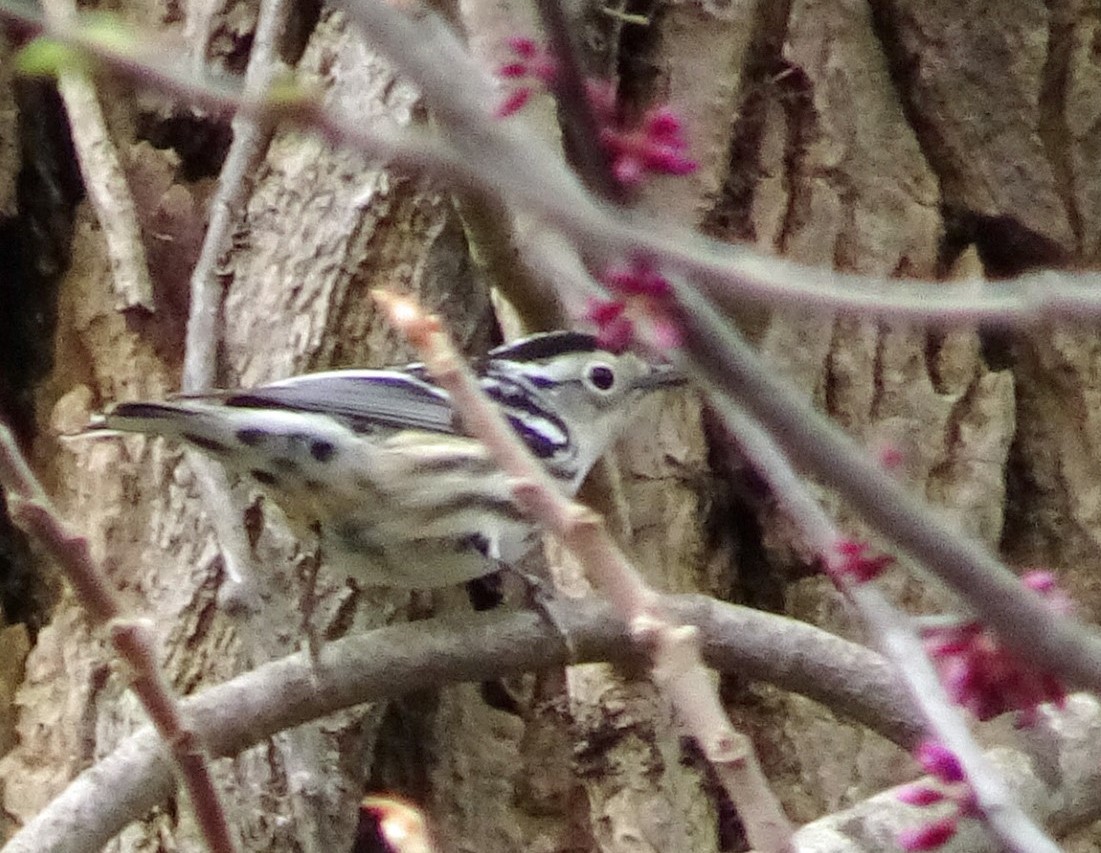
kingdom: Animalia
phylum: Chordata
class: Aves
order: Passeriformes
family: Parulidae
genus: Mniotilta
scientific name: Mniotilta varia
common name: Black-and-white warbler
